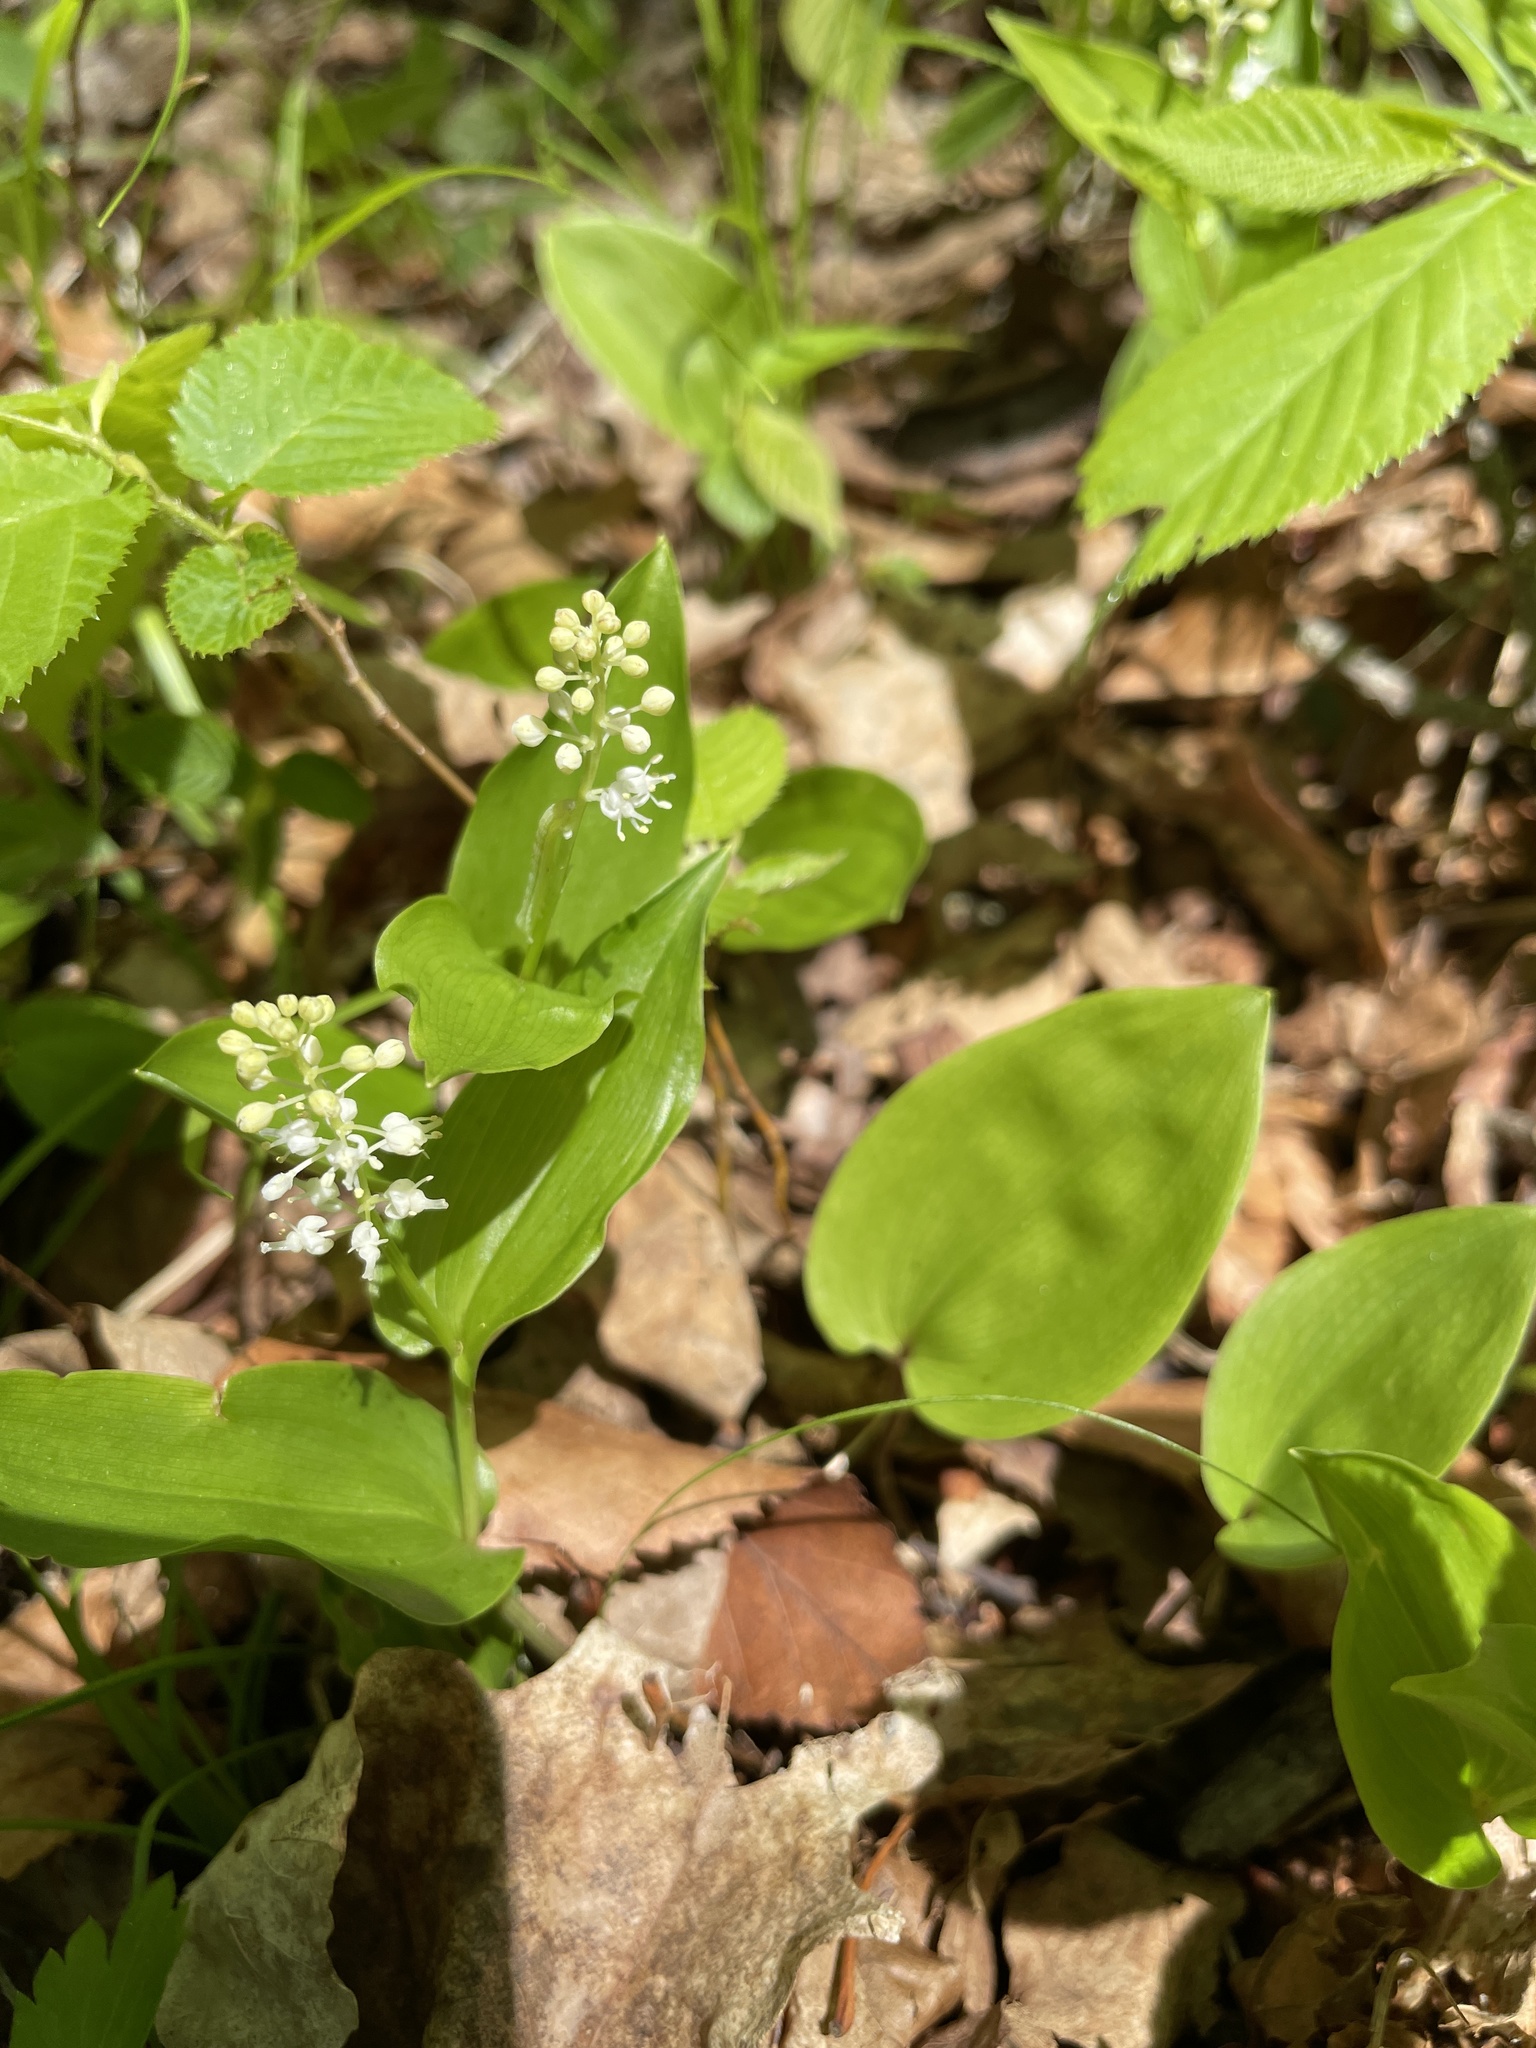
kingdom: Plantae
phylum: Tracheophyta
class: Liliopsida
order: Asparagales
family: Asparagaceae
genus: Maianthemum
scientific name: Maianthemum canadense
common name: False lily-of-the-valley
